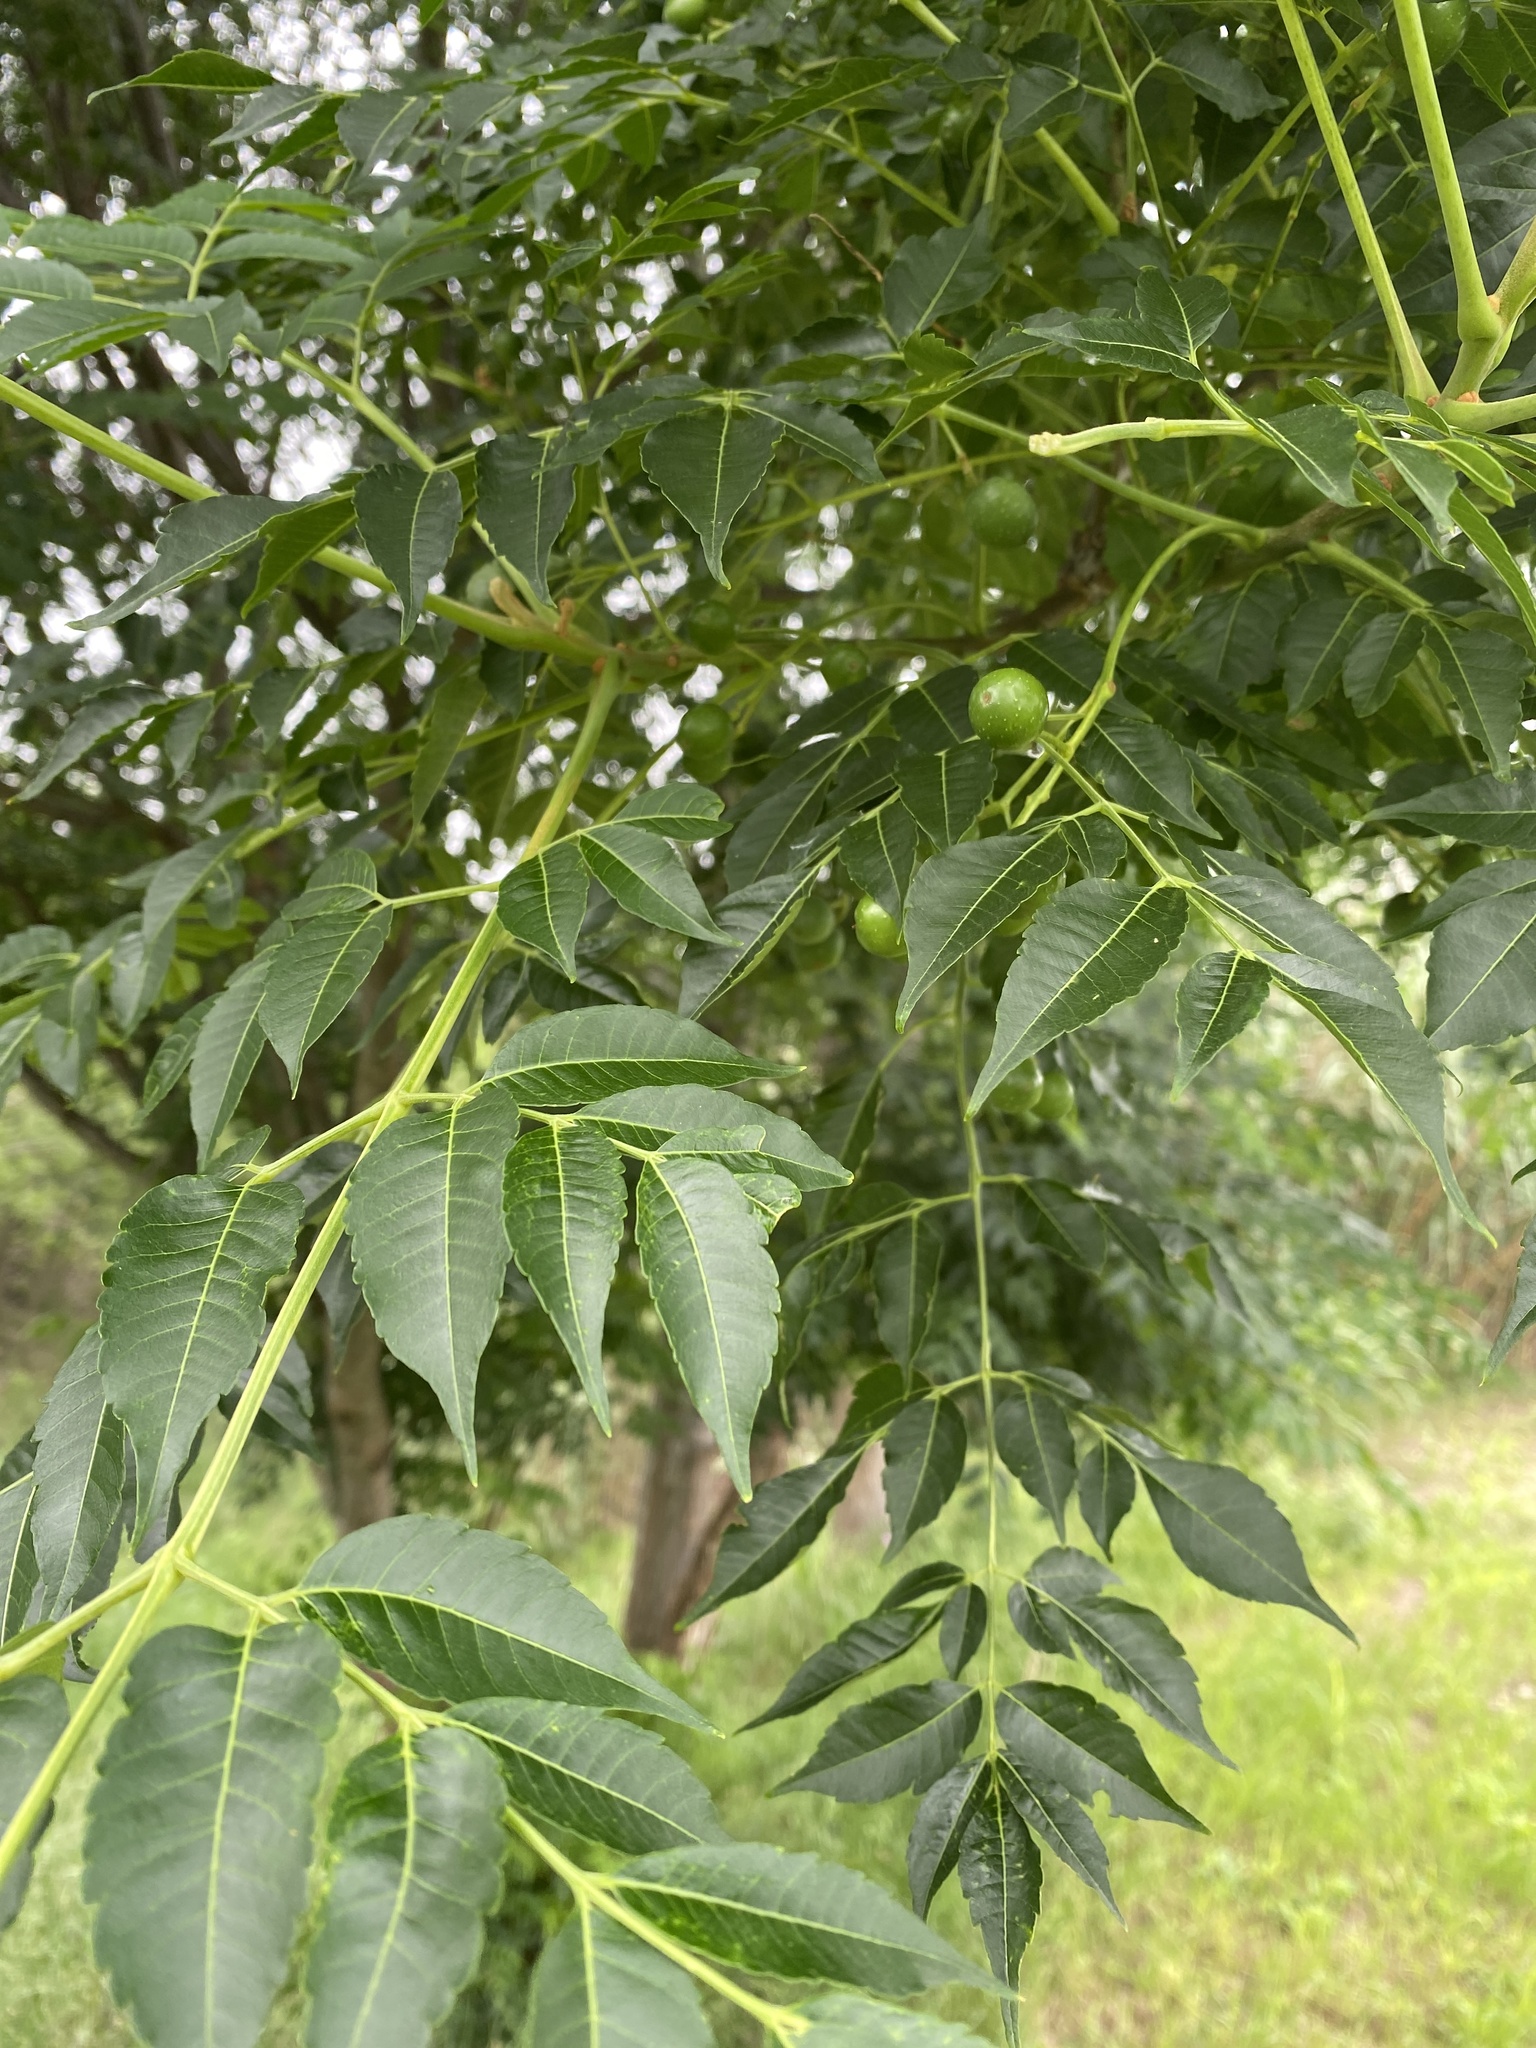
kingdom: Plantae
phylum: Tracheophyta
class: Magnoliopsida
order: Sapindales
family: Meliaceae
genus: Melia
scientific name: Melia azedarach
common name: Chinaberrytree
